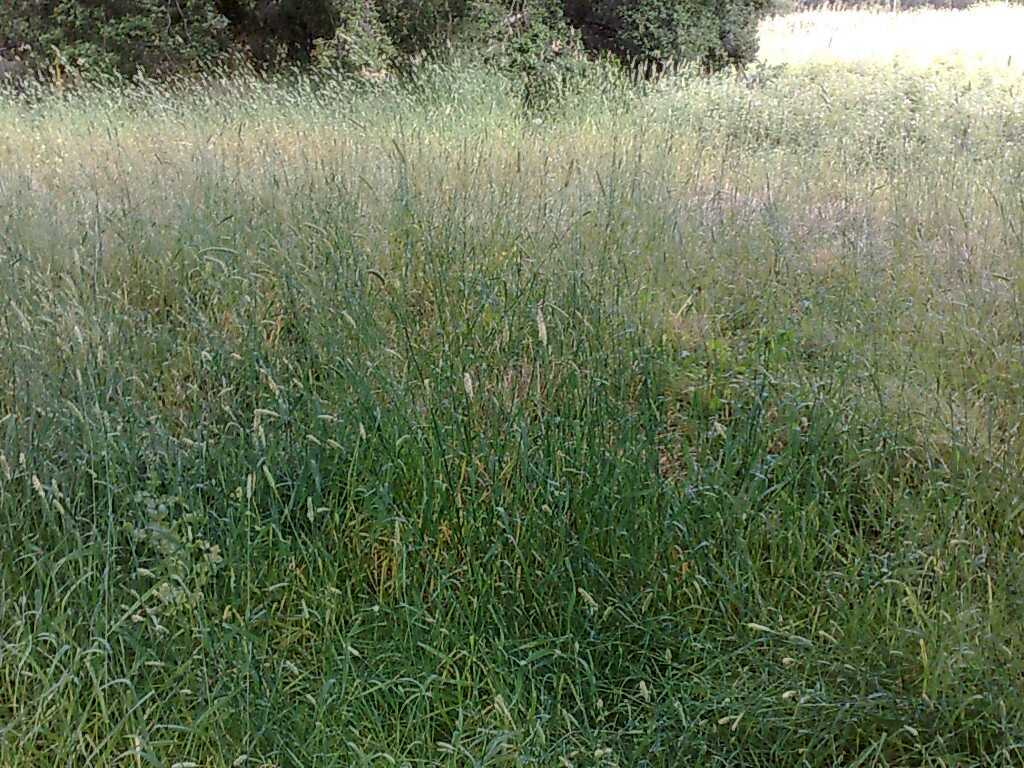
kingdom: Plantae
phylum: Tracheophyta
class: Liliopsida
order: Poales
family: Poaceae
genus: Phalaris
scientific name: Phalaris aquatica
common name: Bulbous canary-grass
